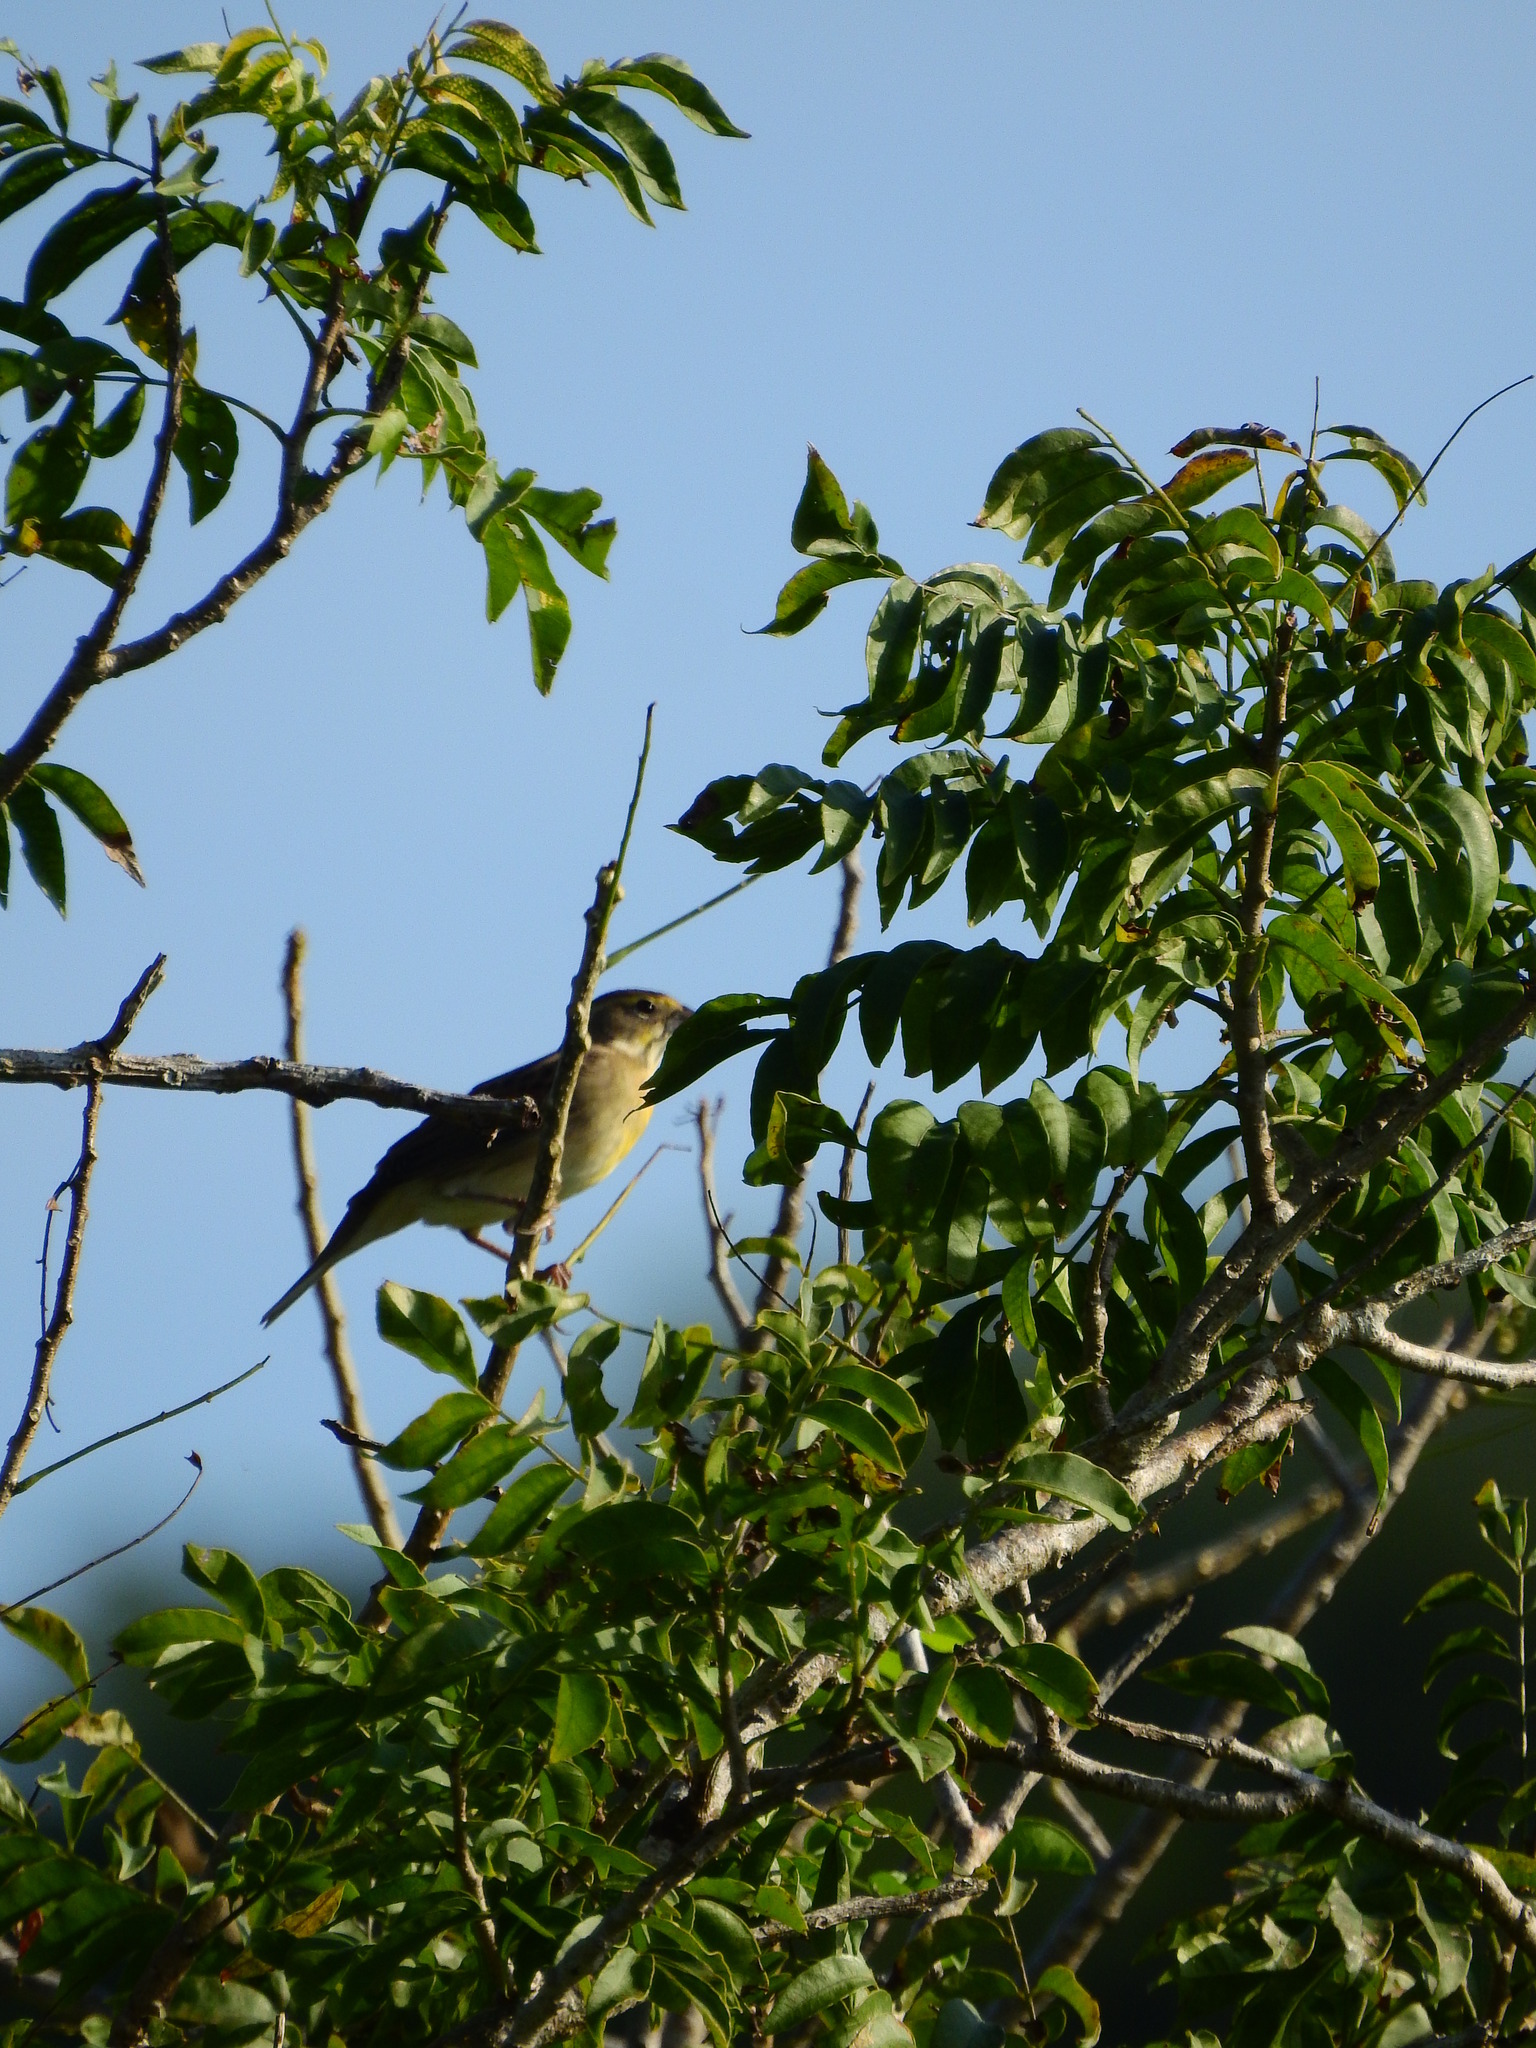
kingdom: Animalia
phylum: Chordata
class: Aves
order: Passeriformes
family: Cardinalidae
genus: Spiza
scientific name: Spiza americana
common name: Dickcissel
